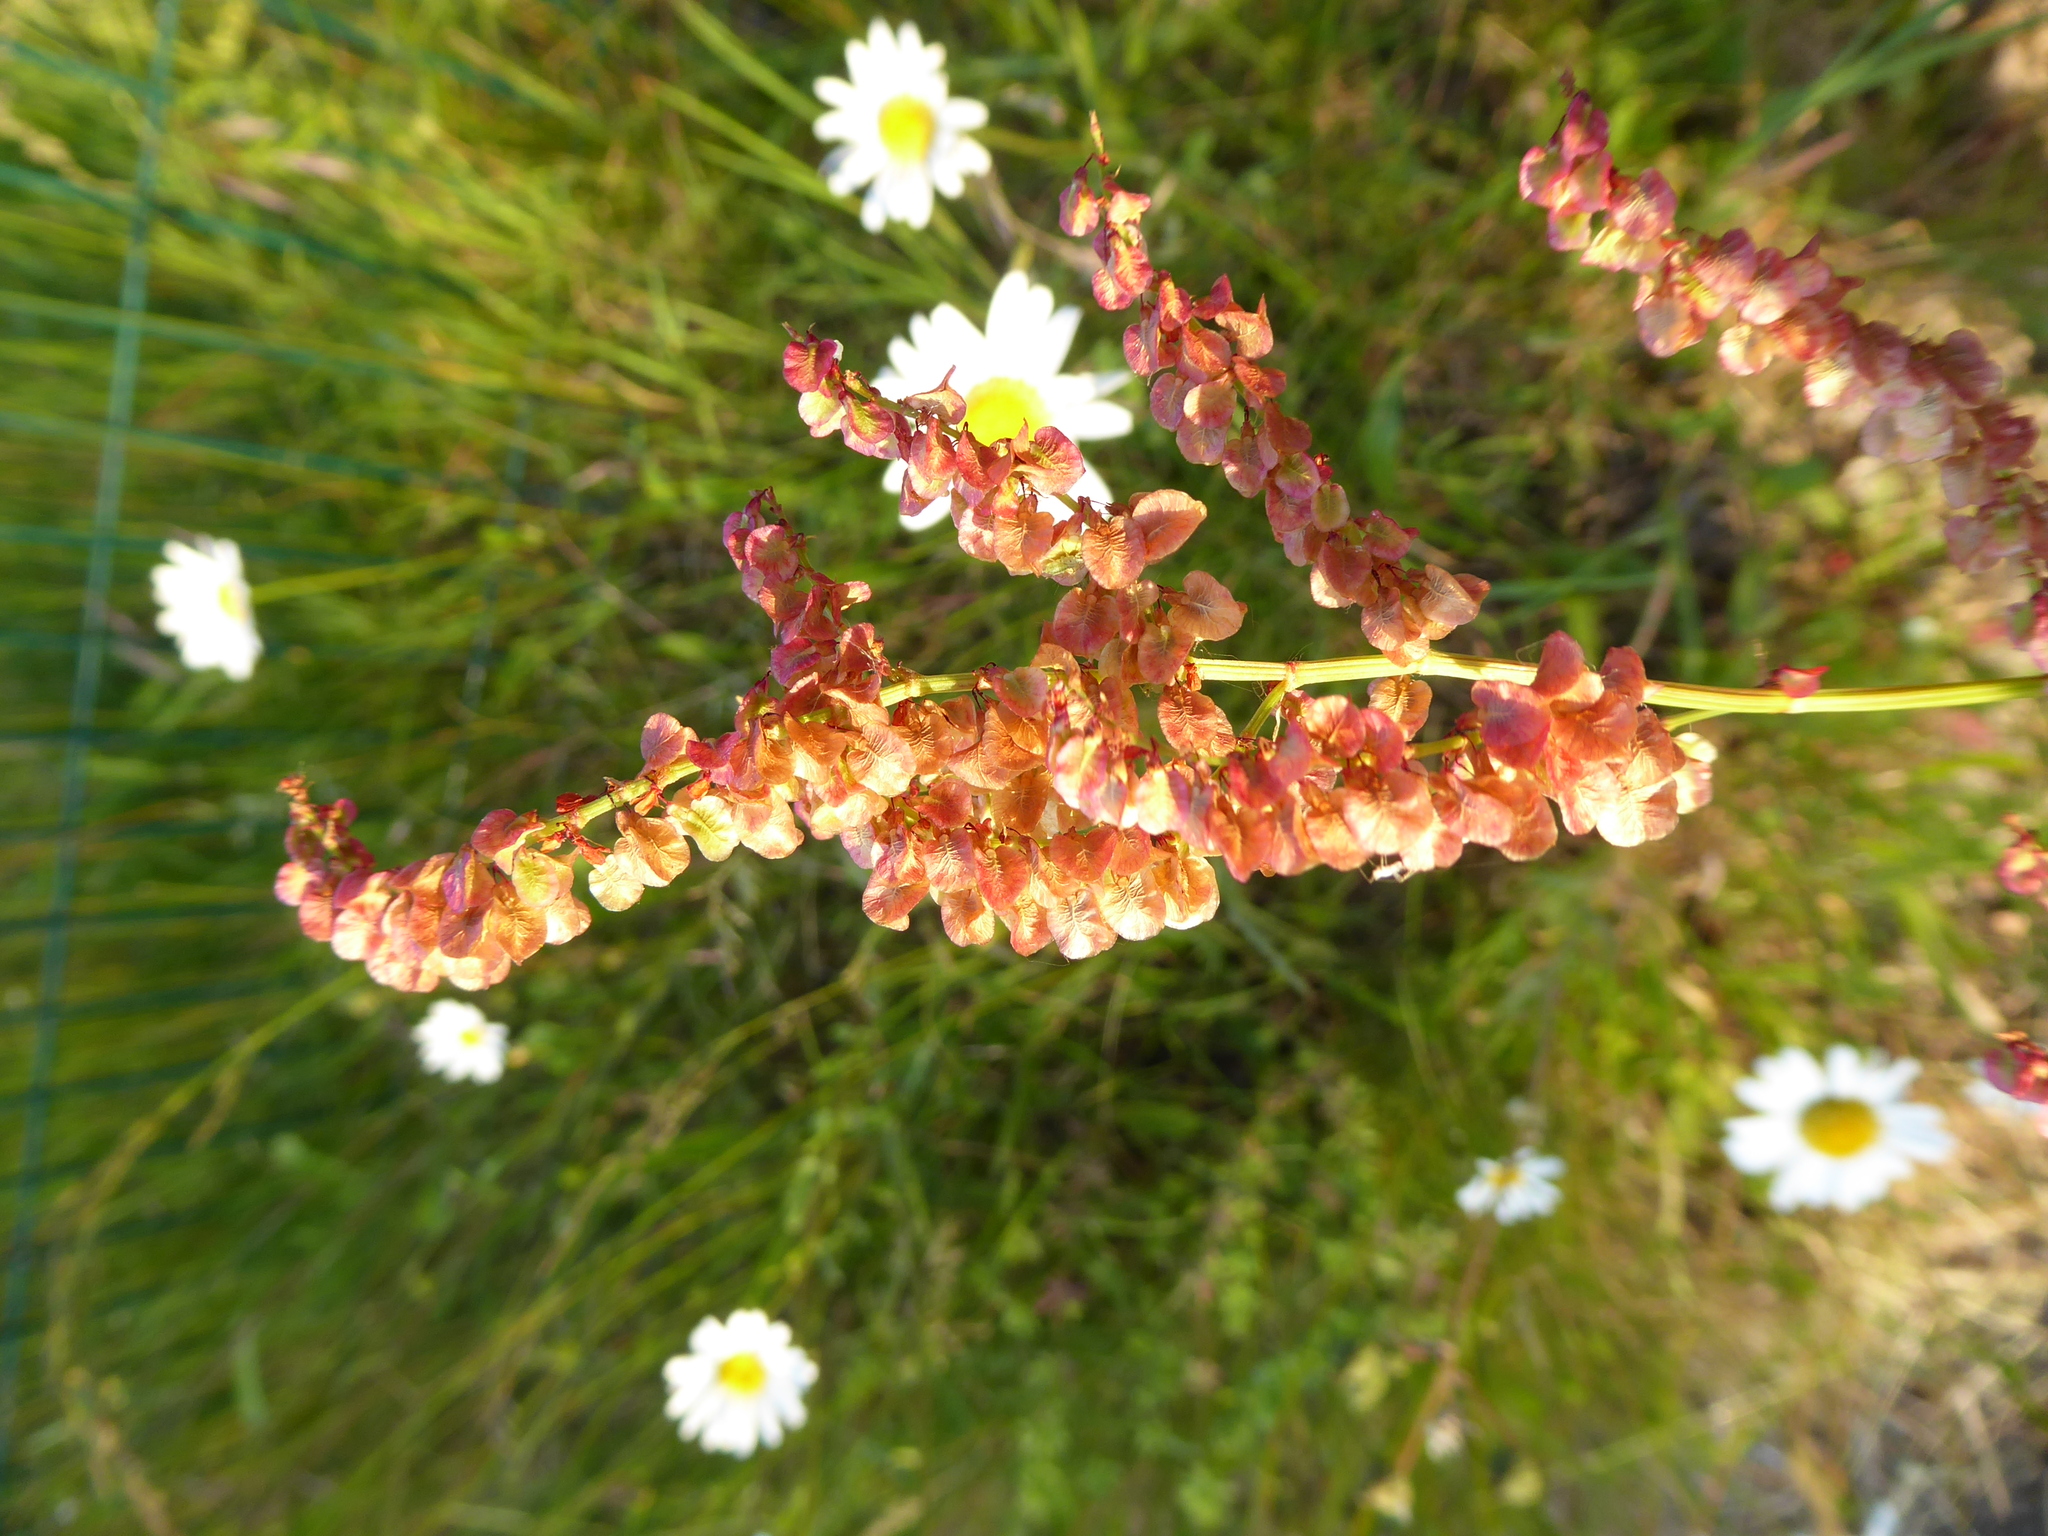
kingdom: Plantae
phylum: Tracheophyta
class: Magnoliopsida
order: Caryophyllales
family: Polygonaceae
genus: Rumex
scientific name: Rumex acetosa
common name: Garden sorrel
